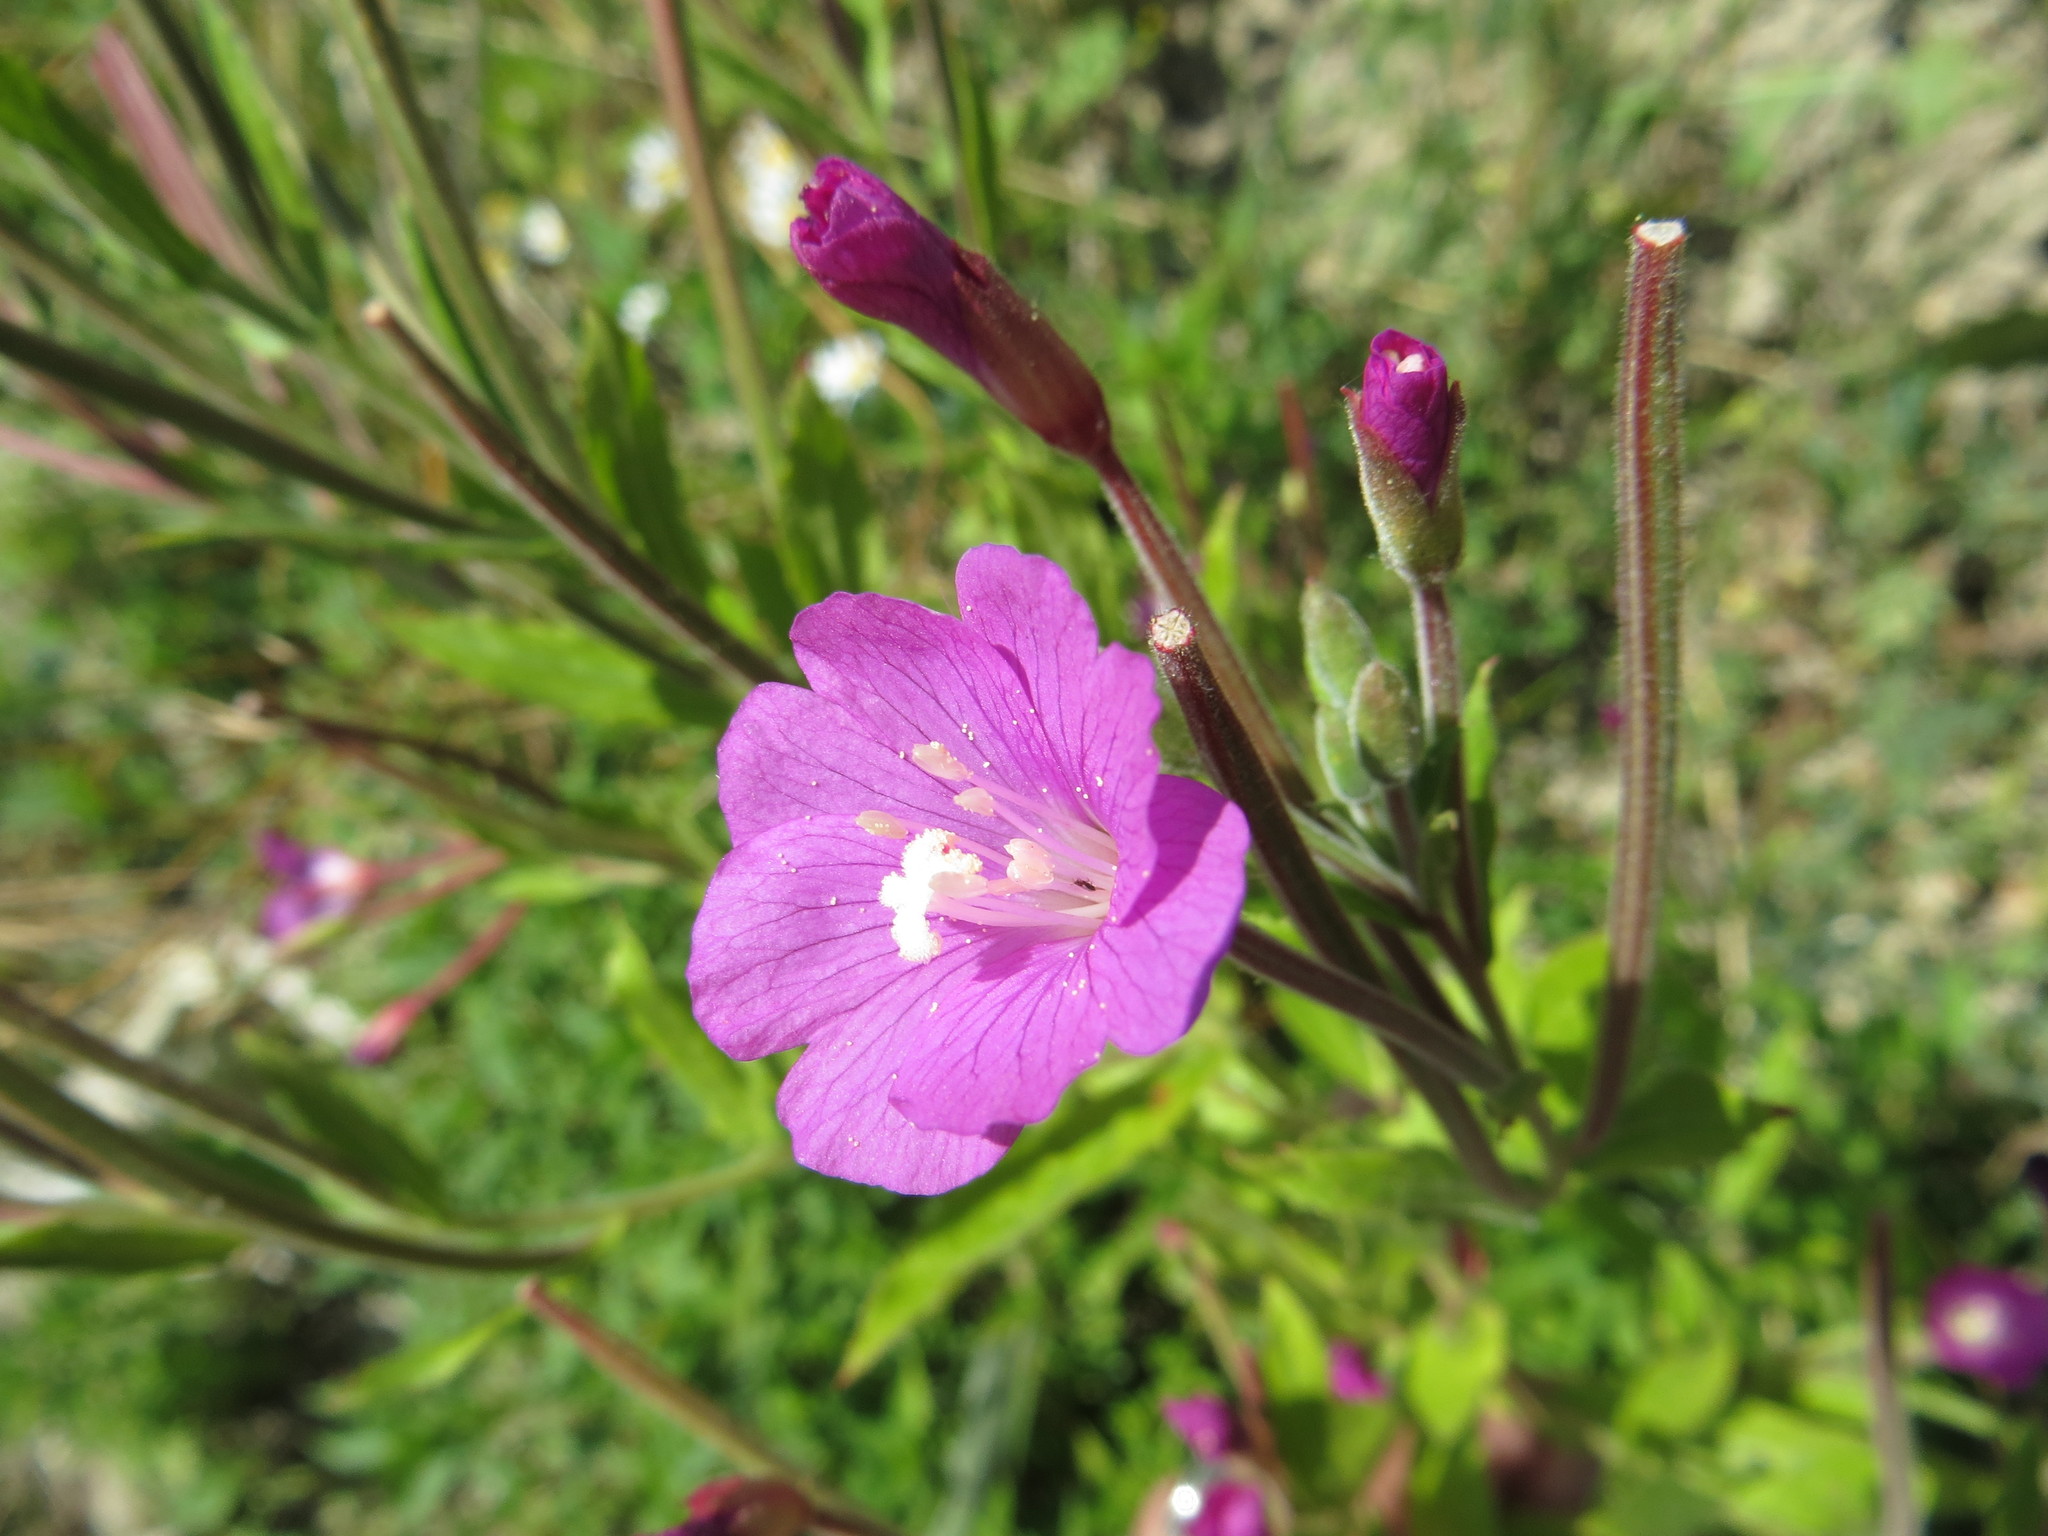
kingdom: Plantae
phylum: Tracheophyta
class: Magnoliopsida
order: Myrtales
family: Onagraceae
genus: Epilobium
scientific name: Epilobium hirsutum
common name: Great willowherb
